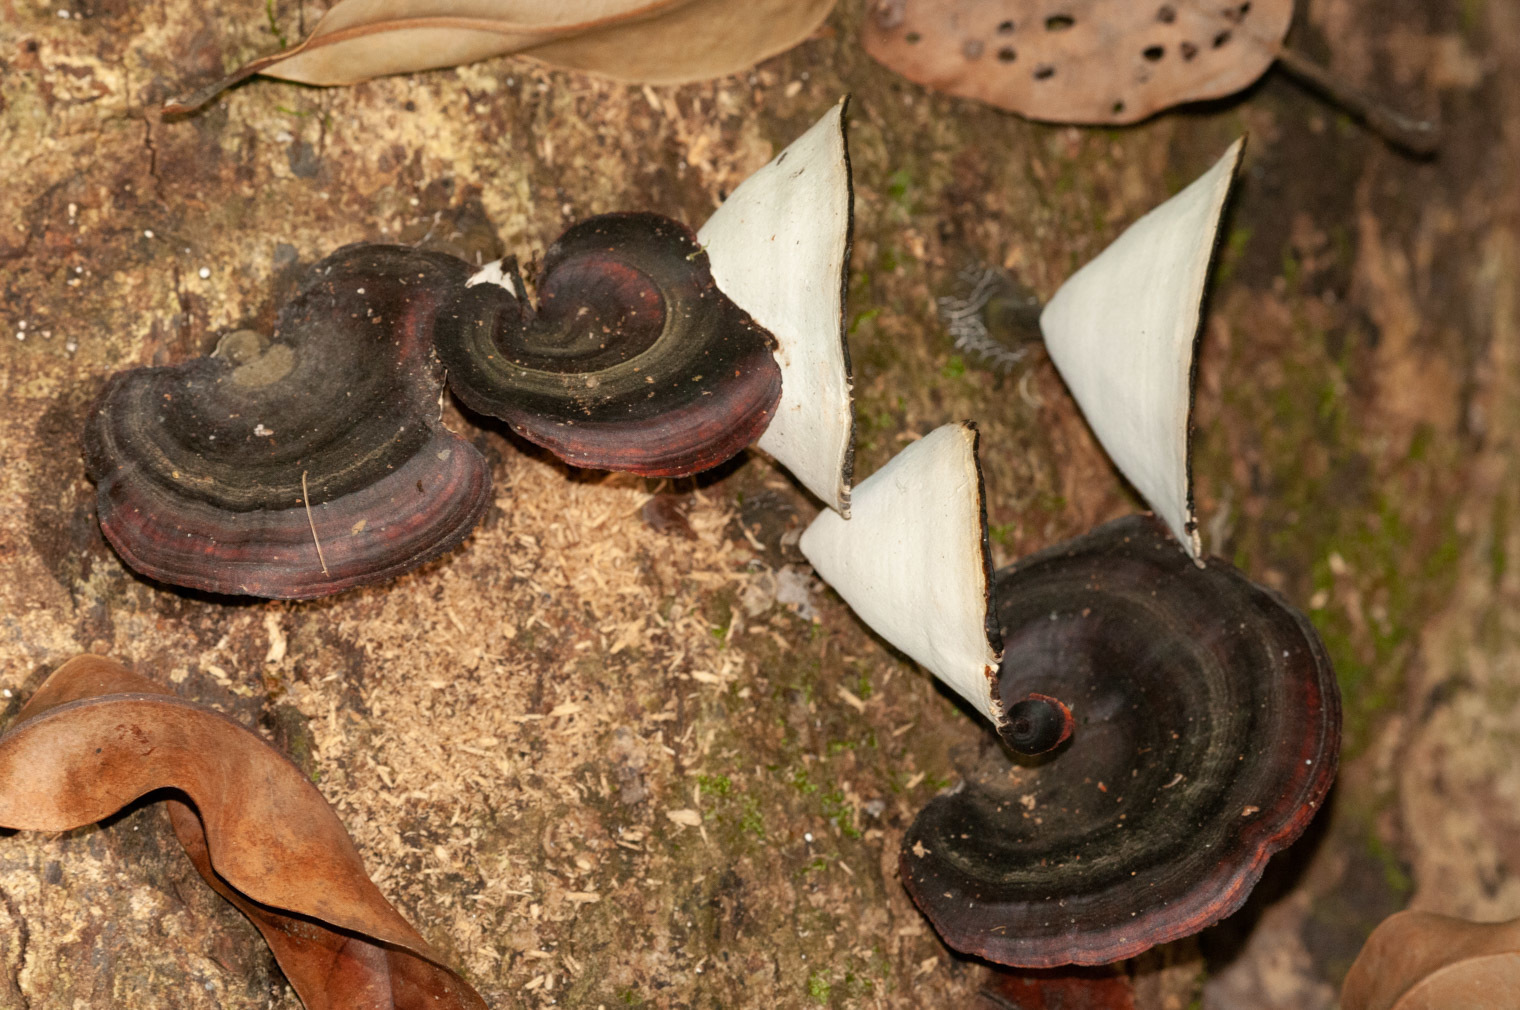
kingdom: Fungi
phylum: Basidiomycota
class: Agaricomycetes
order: Polyporales
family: Polyporaceae
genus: Microporus
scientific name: Microporus affinis
